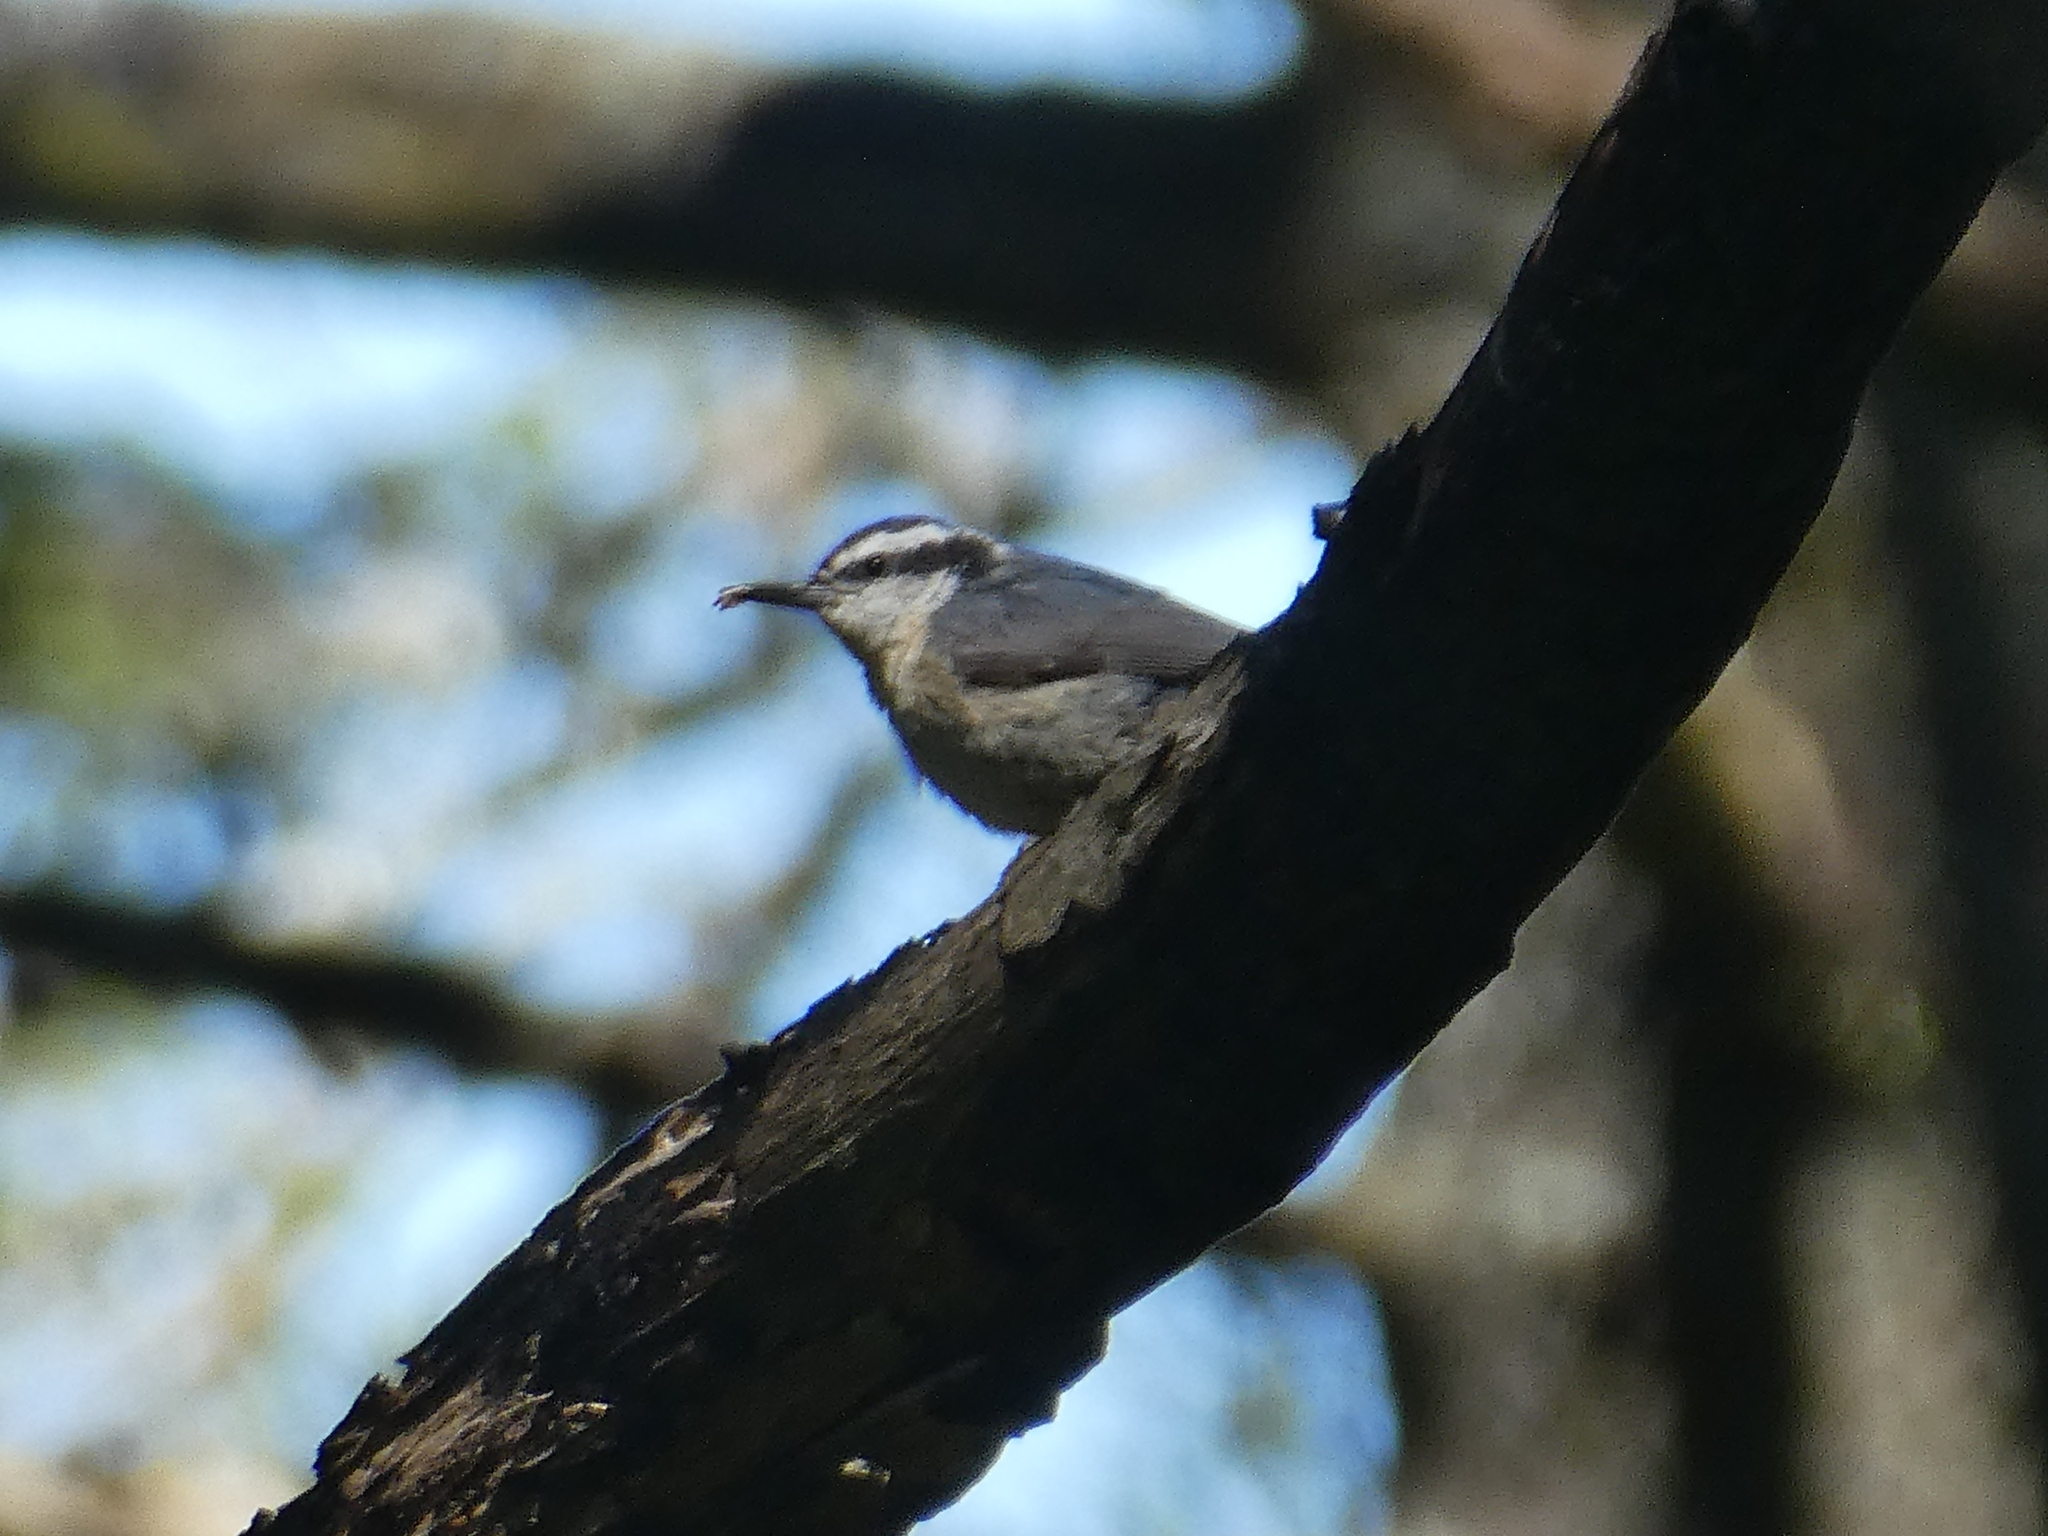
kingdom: Animalia
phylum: Chordata
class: Aves
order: Passeriformes
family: Sittidae
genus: Sitta
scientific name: Sitta canadensis
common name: Red-breasted nuthatch
